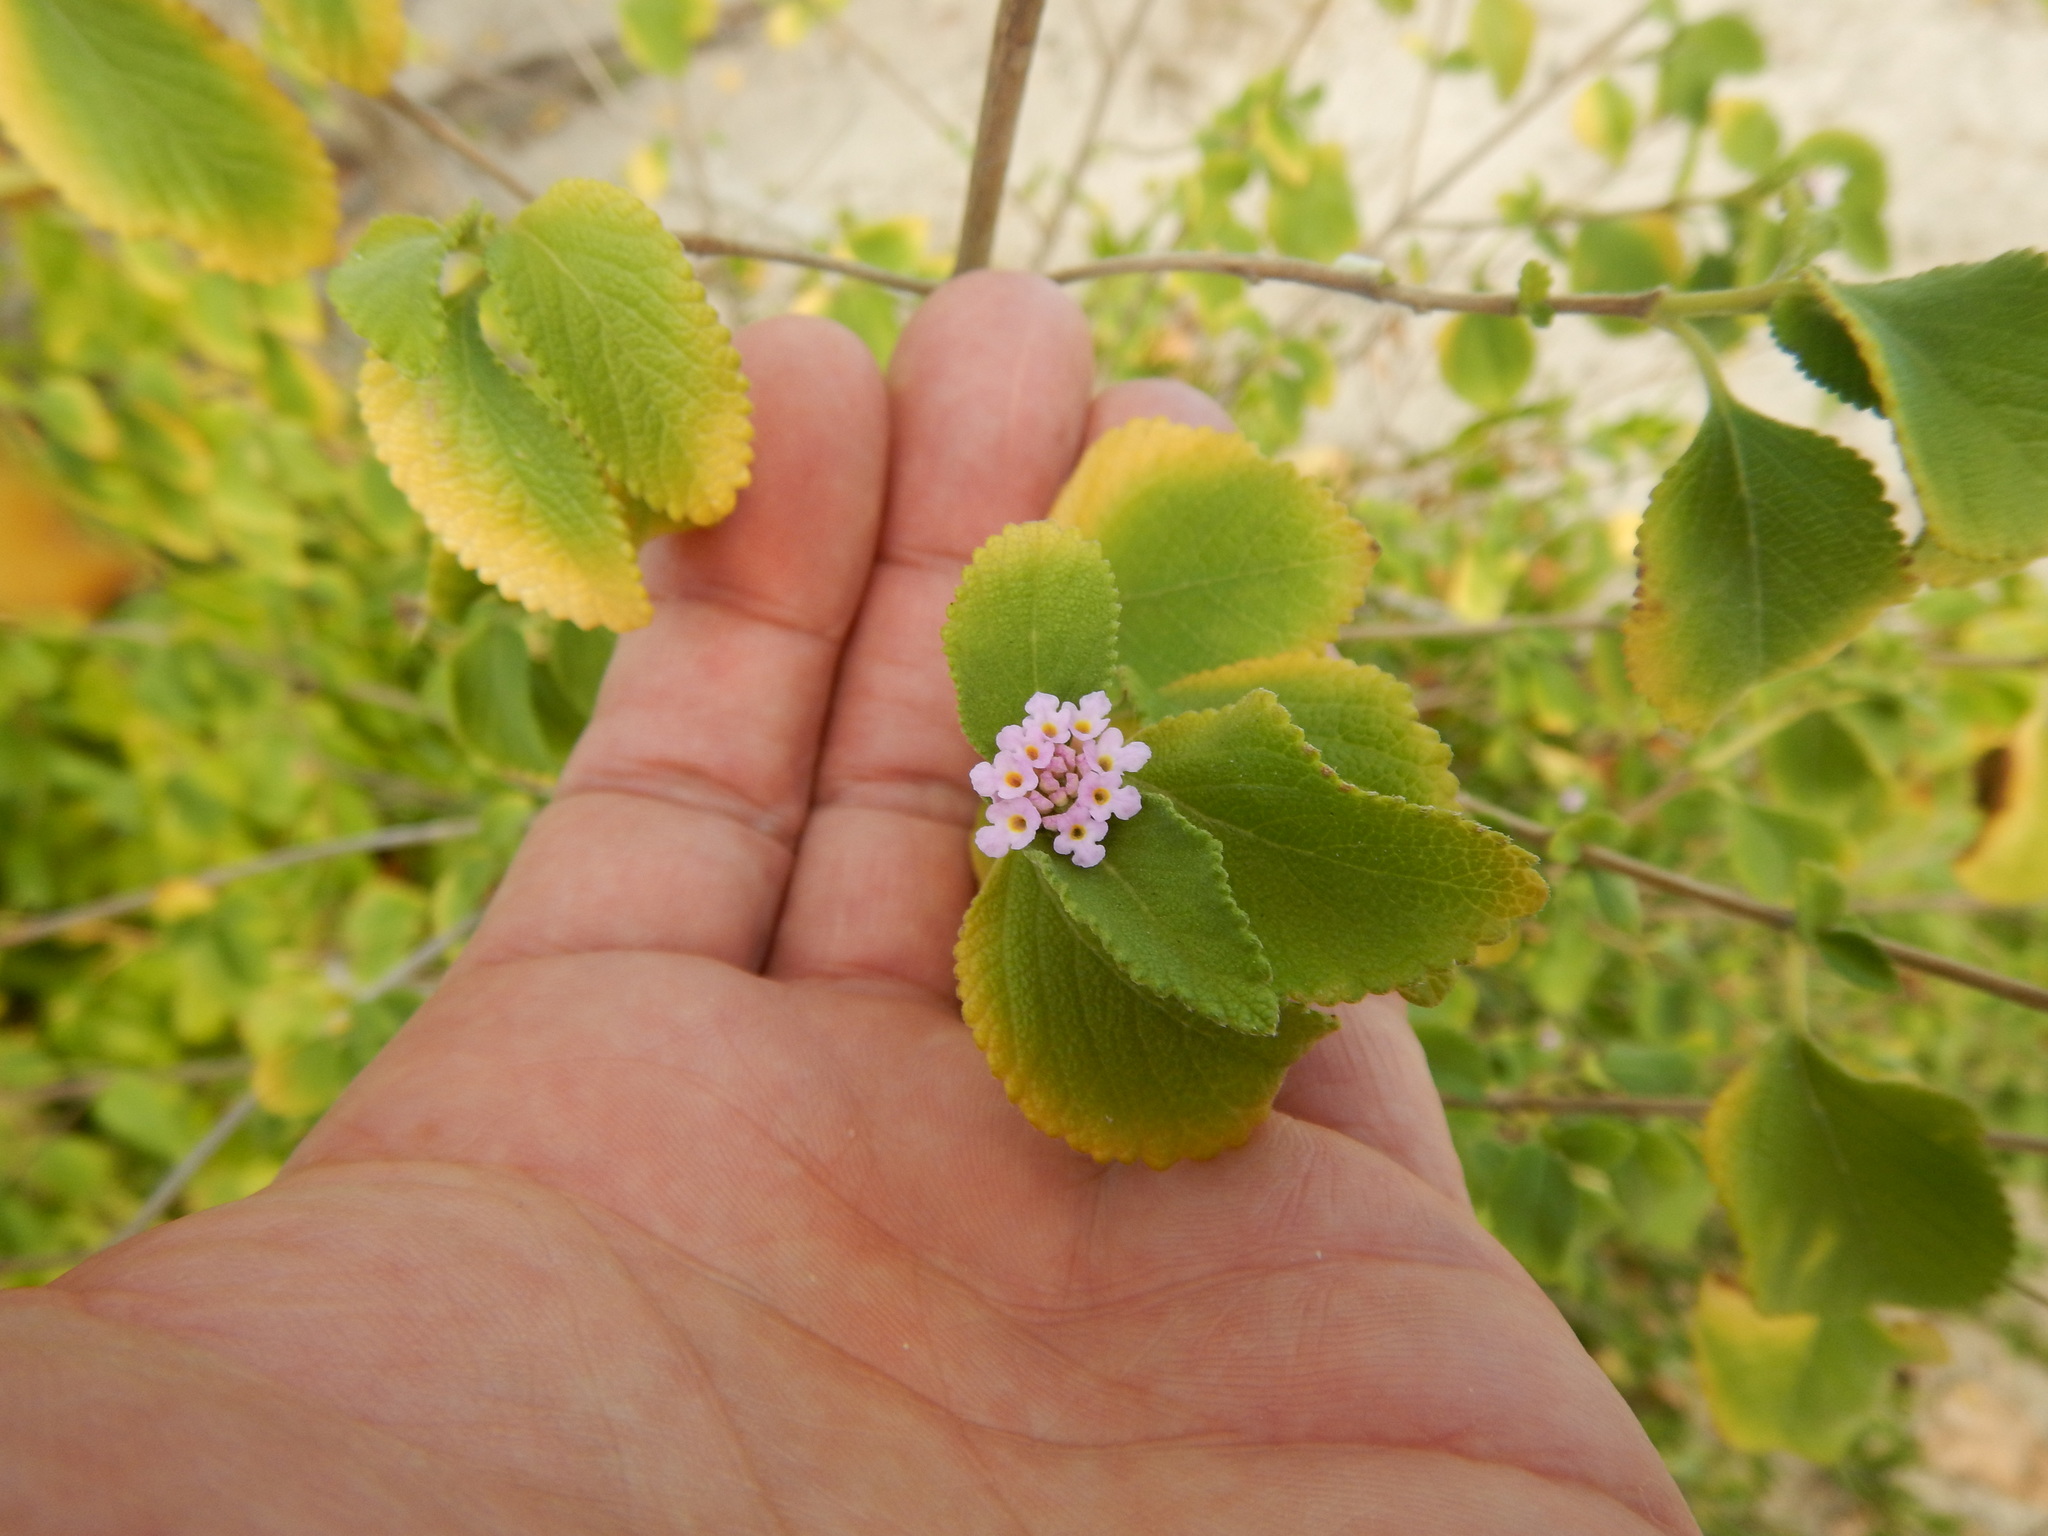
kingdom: Plantae
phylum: Tracheophyta
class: Magnoliopsida
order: Lamiales
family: Verbenaceae
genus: Lantana
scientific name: Lantana involucrata
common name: Black sage
